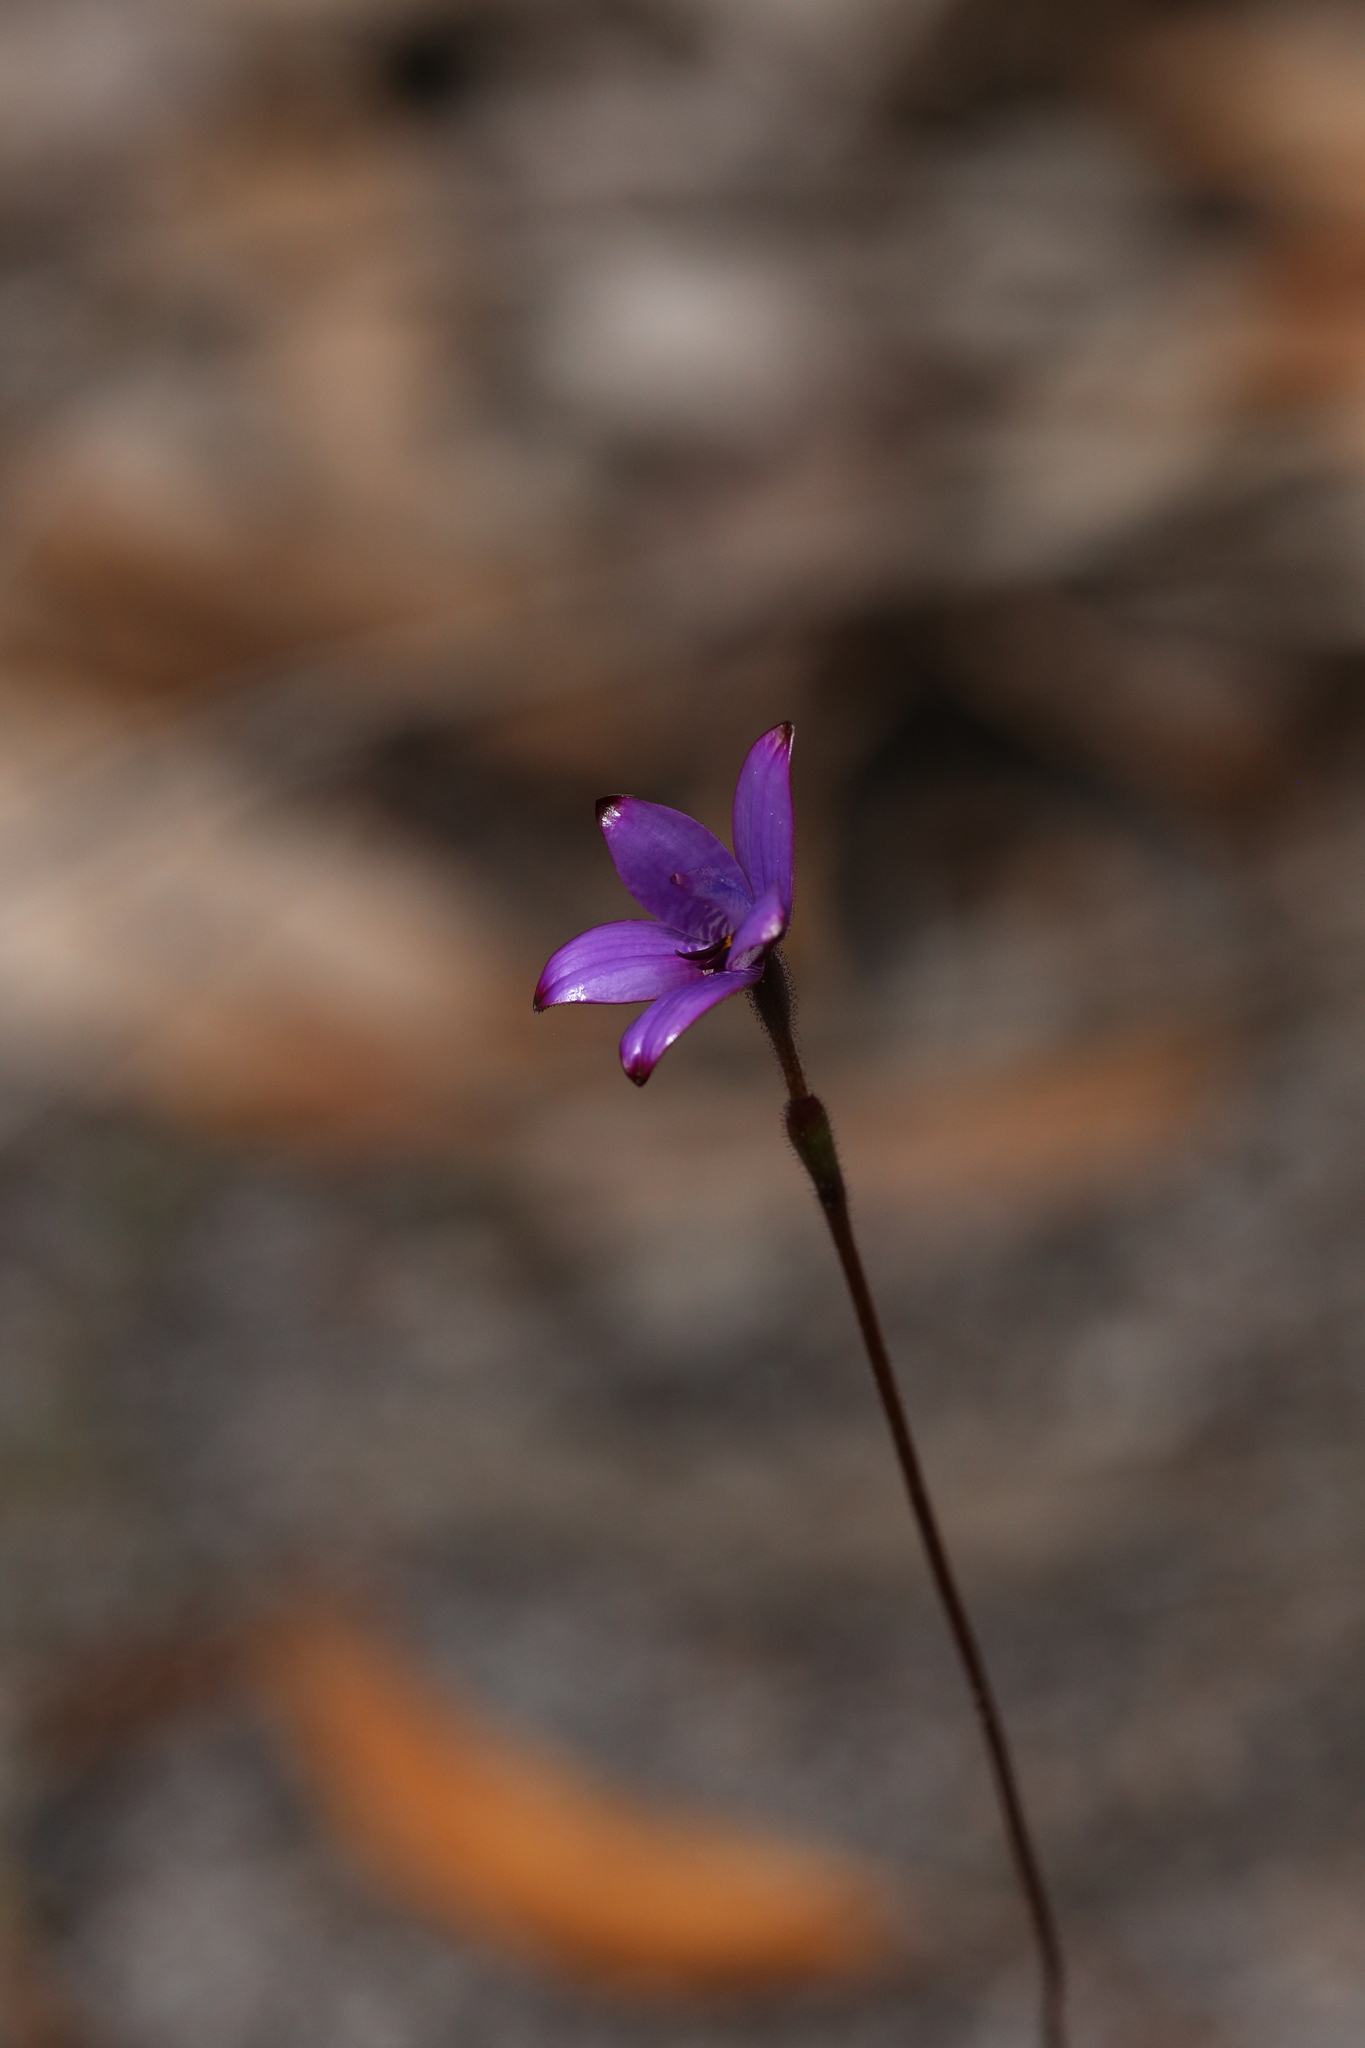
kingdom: Plantae
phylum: Tracheophyta
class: Liliopsida
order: Asparagales
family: Orchidaceae
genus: Caladenia
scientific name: Caladenia brunonis
